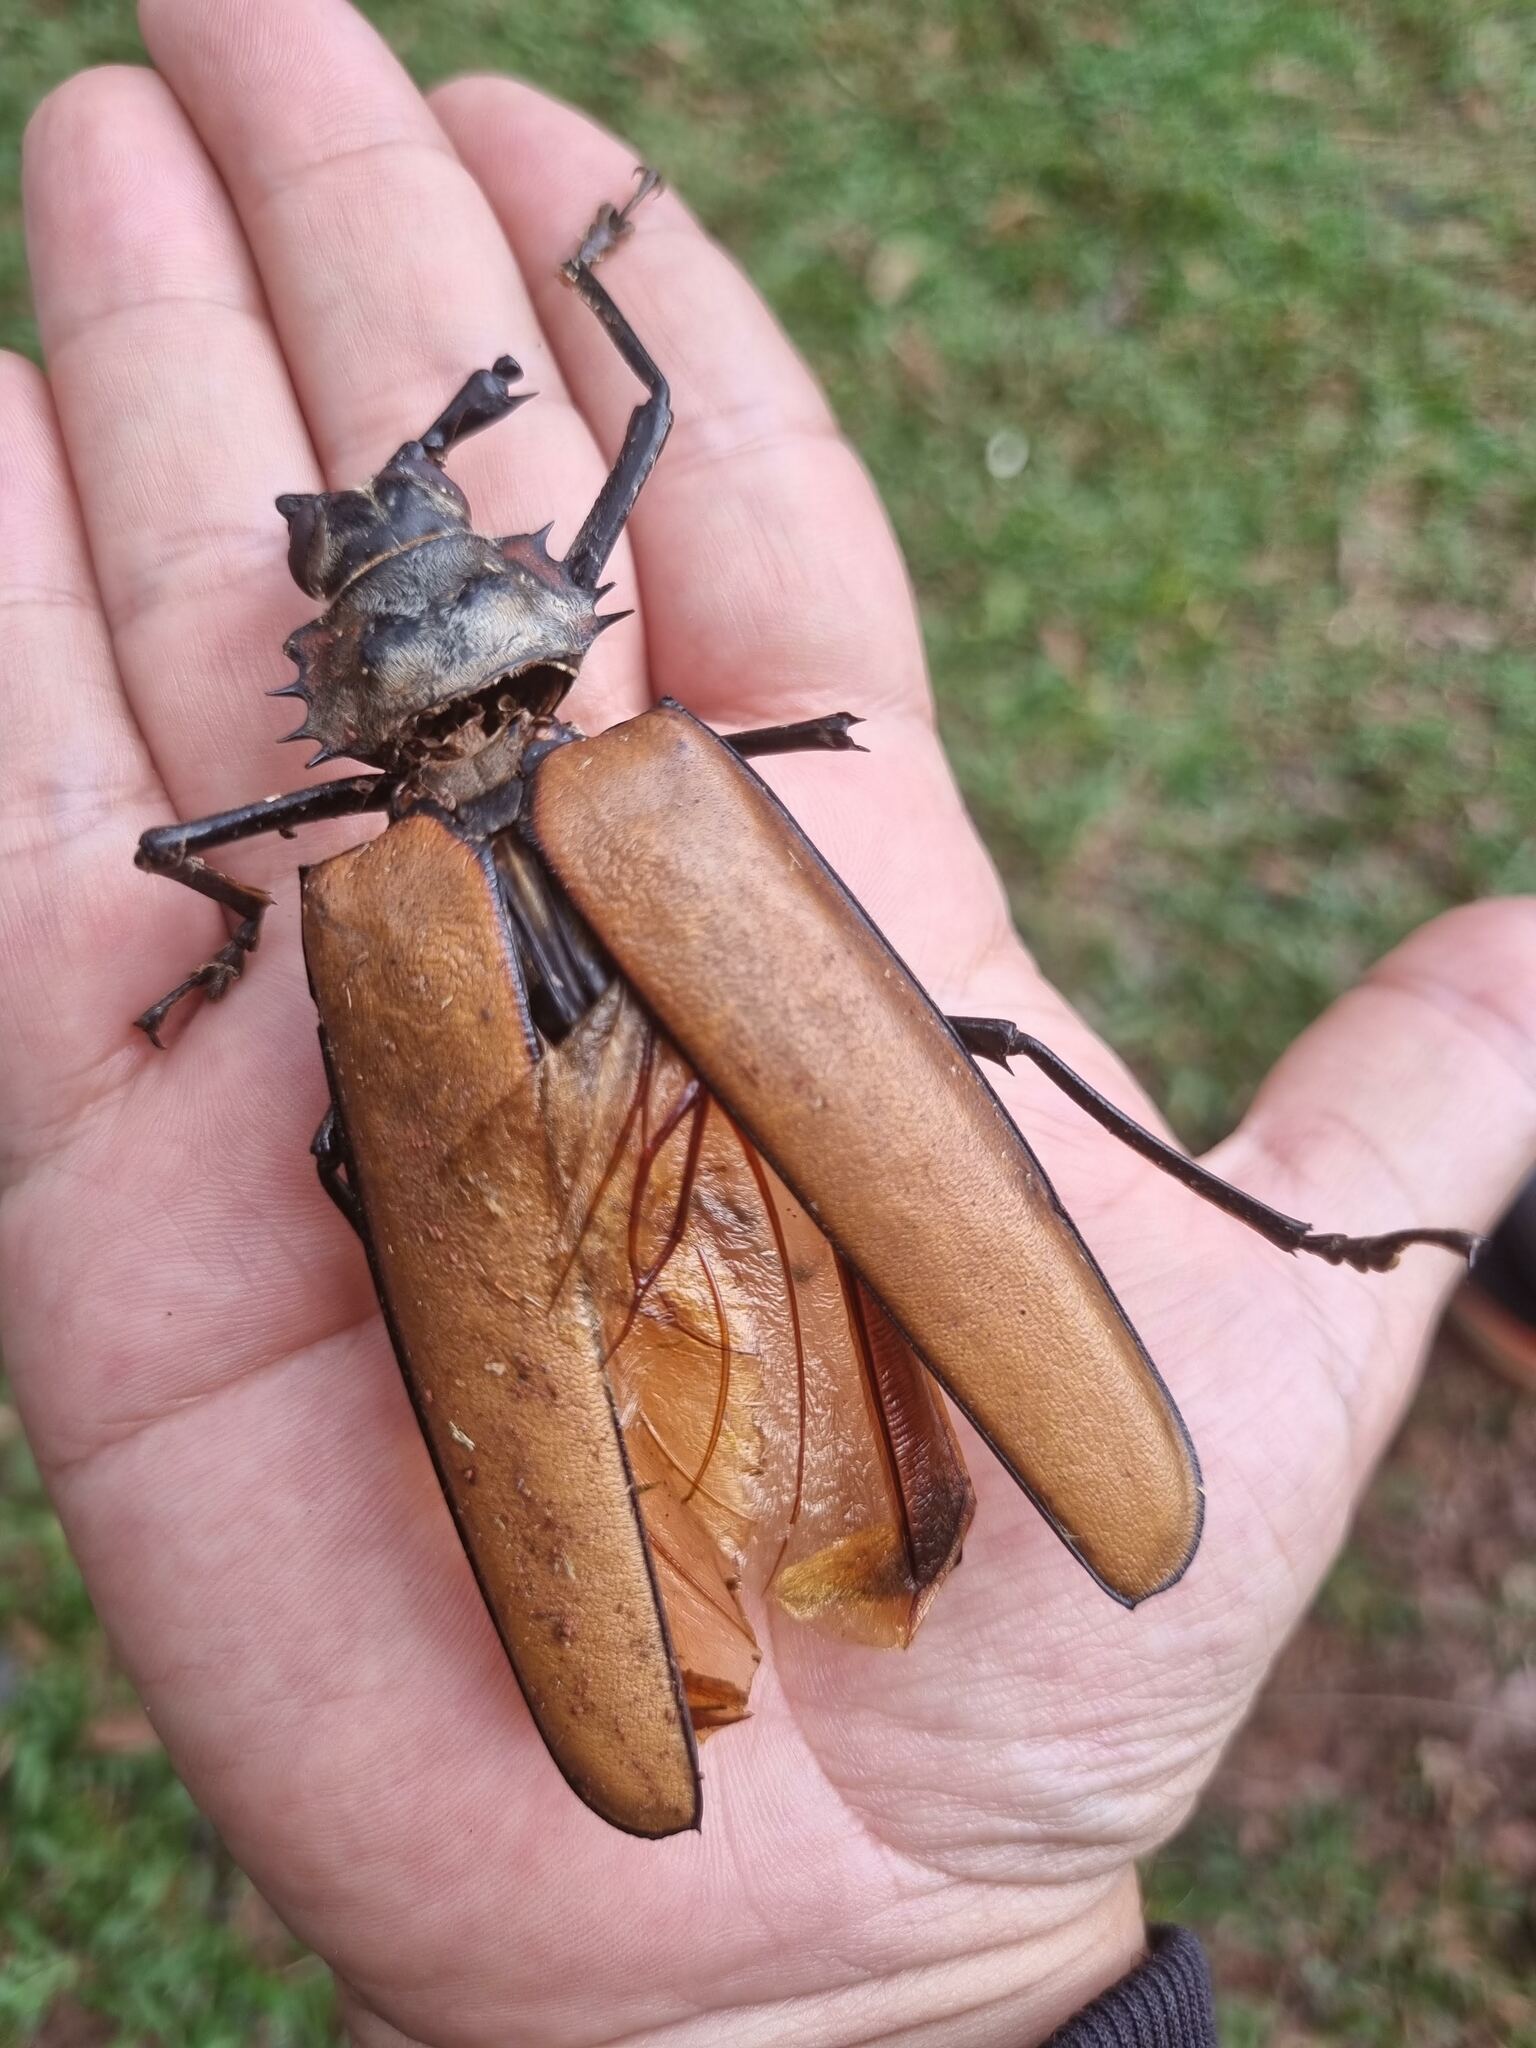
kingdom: Animalia
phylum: Arthropoda
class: Insecta
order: Coleoptera
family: Cerambycidae
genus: Enoplocerus
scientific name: Enoplocerus armillatus
